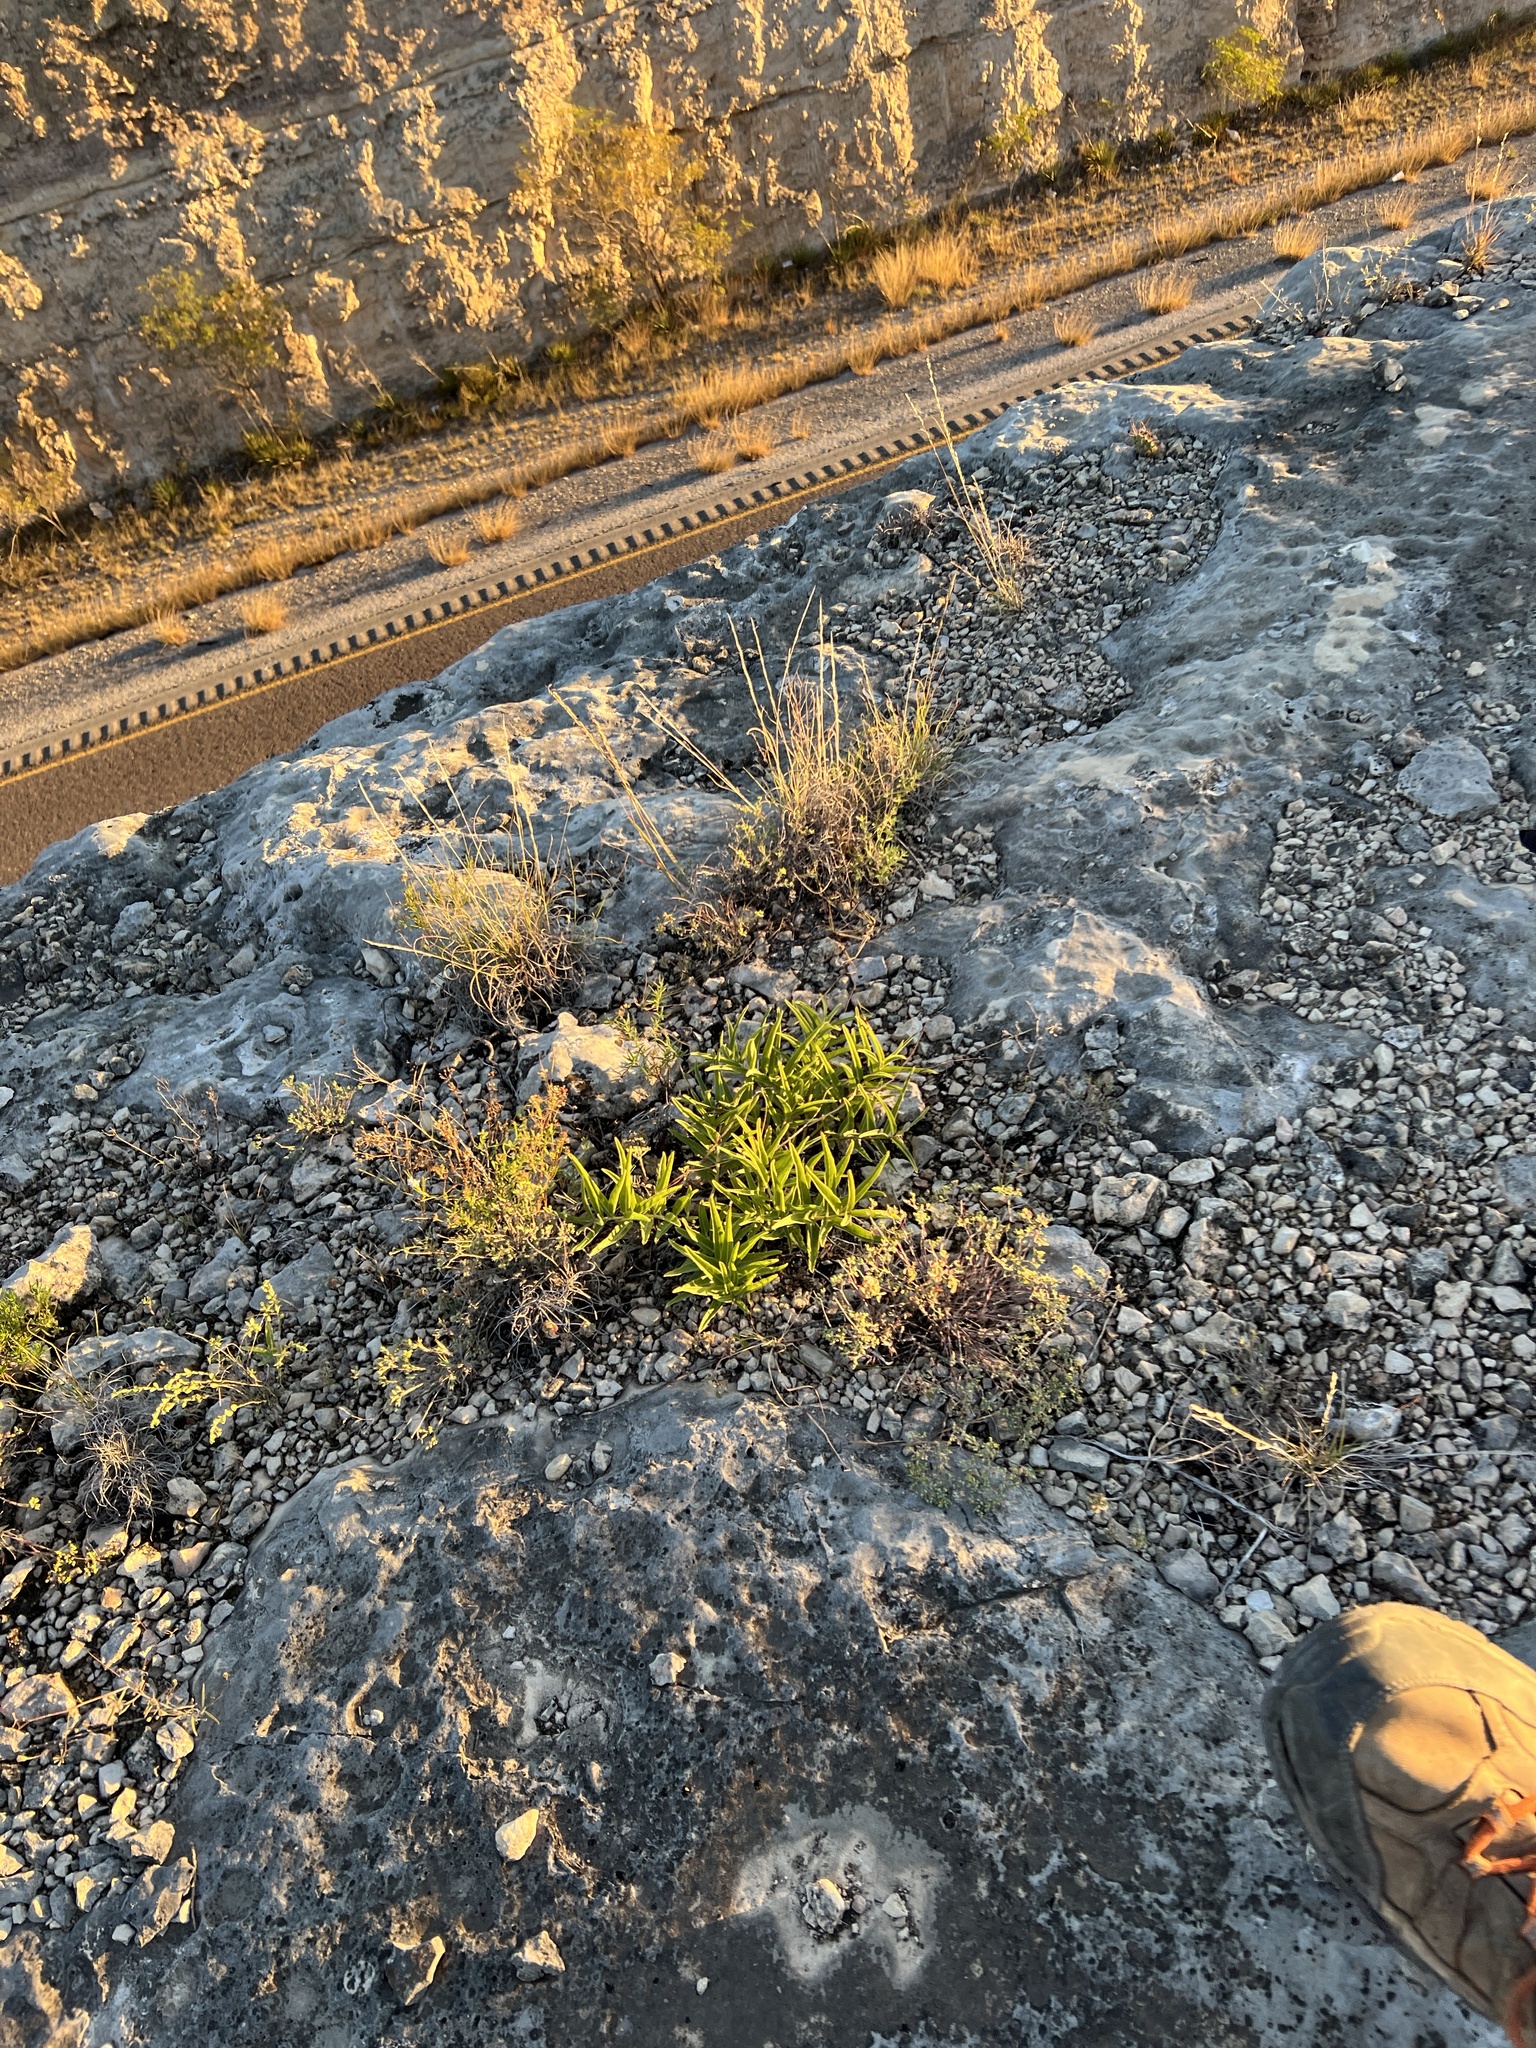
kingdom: Plantae
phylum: Tracheophyta
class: Magnoliopsida
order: Gentianales
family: Apocynaceae
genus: Asclepias
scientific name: Asclepias asperula
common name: Antelope horns
